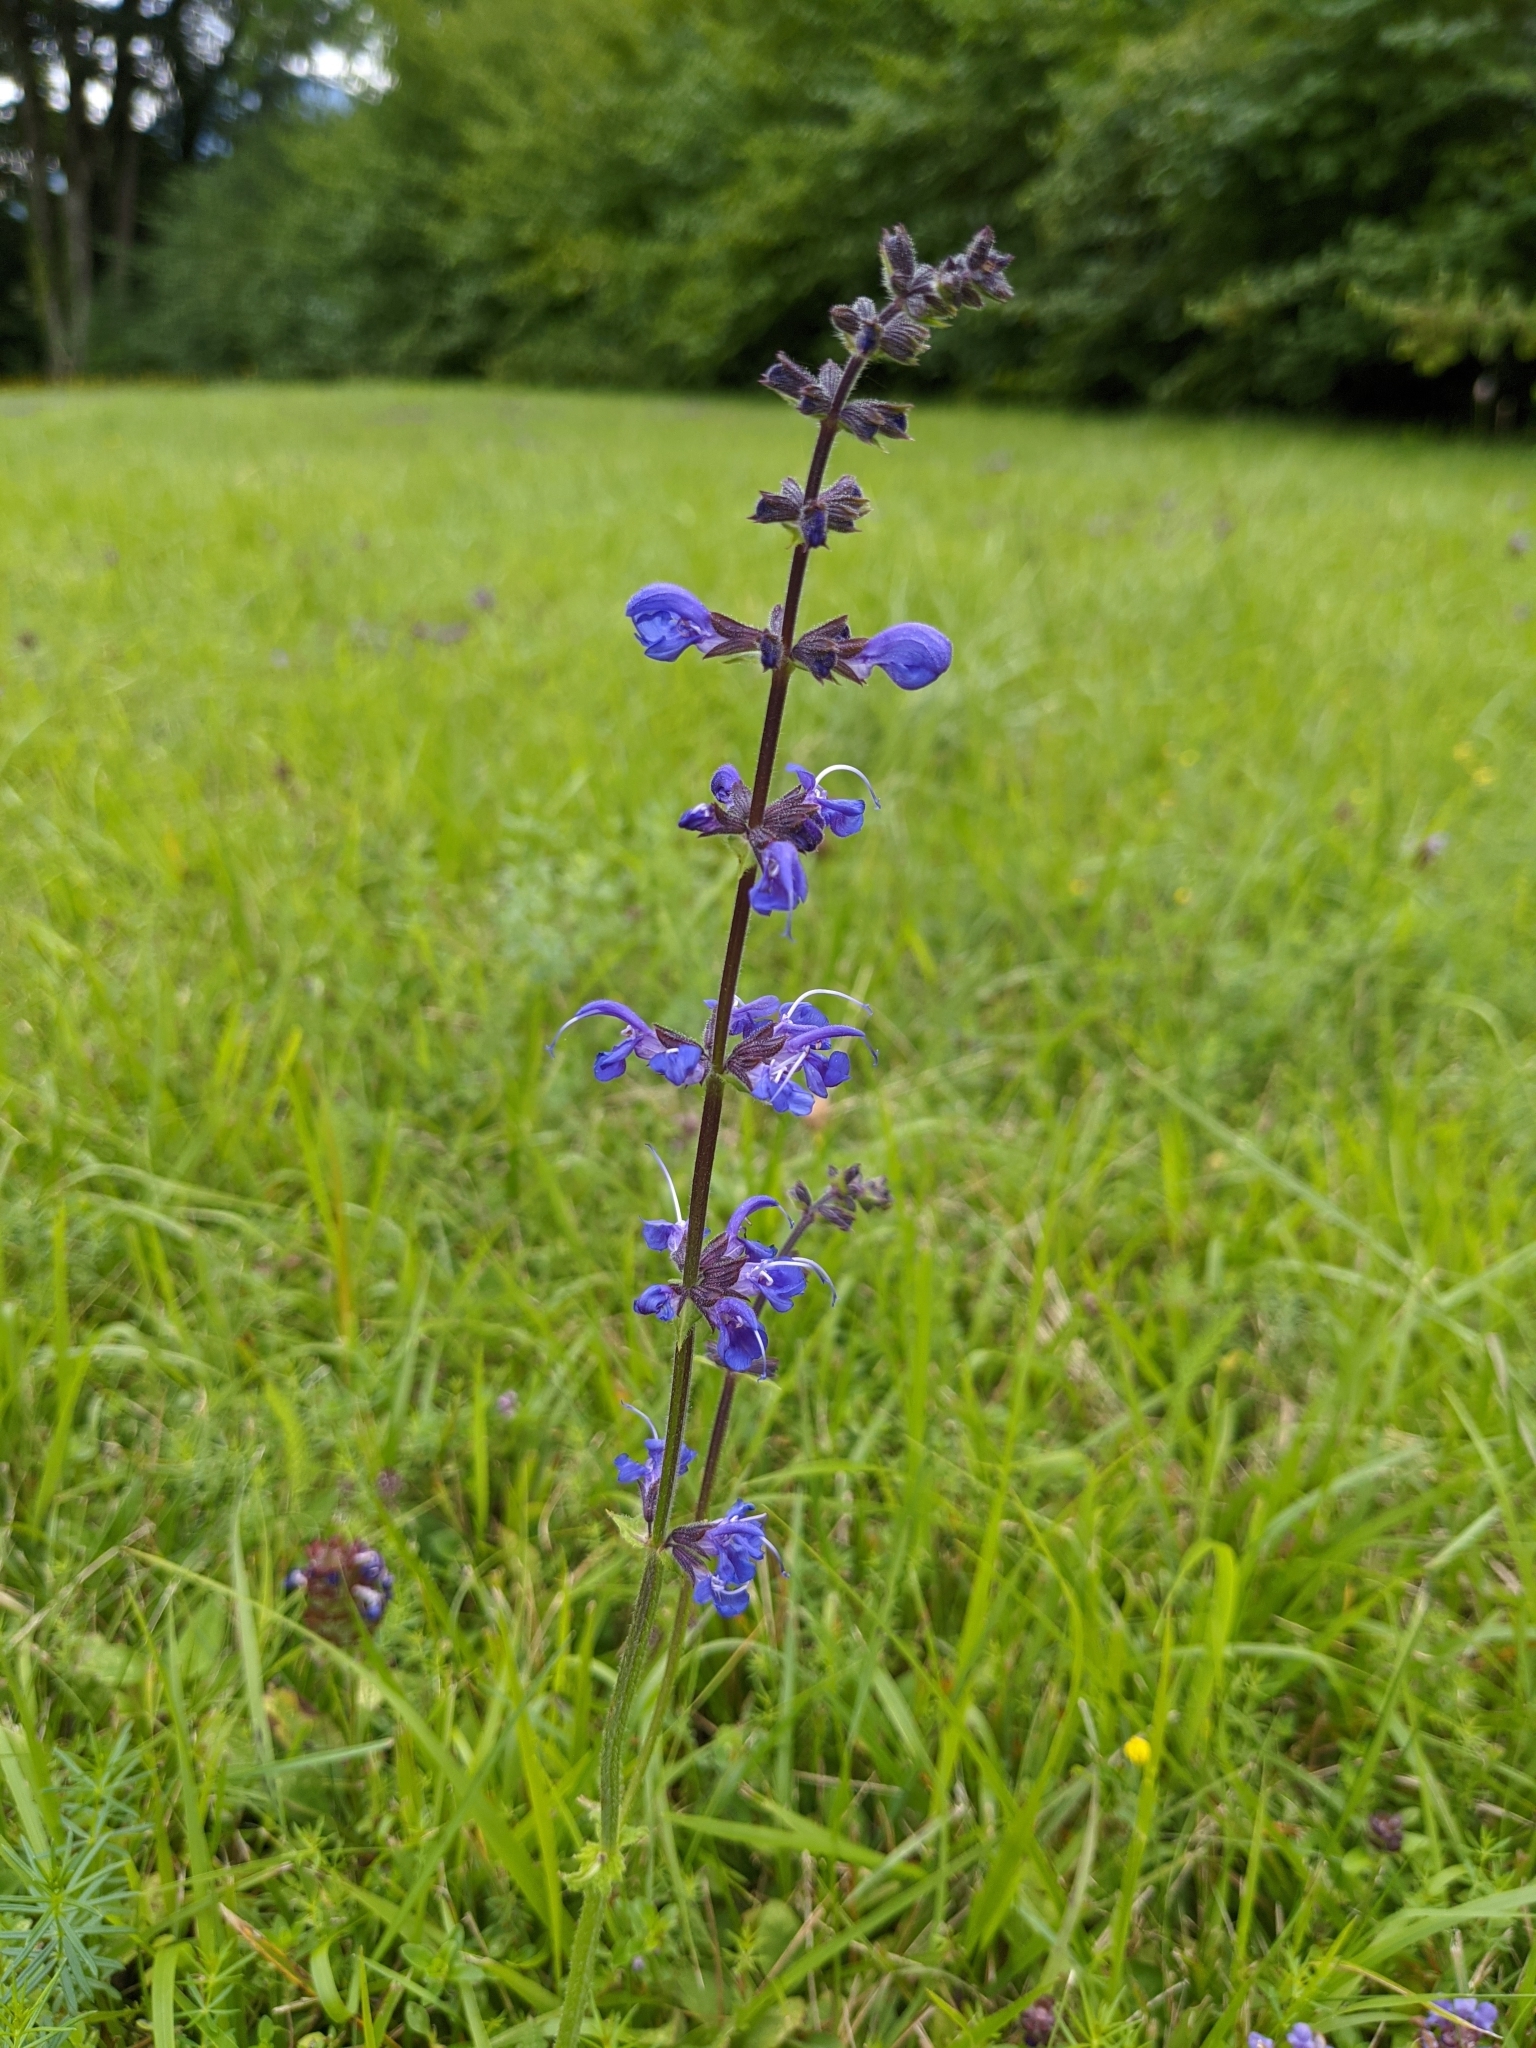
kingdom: Plantae
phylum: Tracheophyta
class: Magnoliopsida
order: Lamiales
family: Lamiaceae
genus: Salvia
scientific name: Salvia pratensis
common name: Meadow sage
